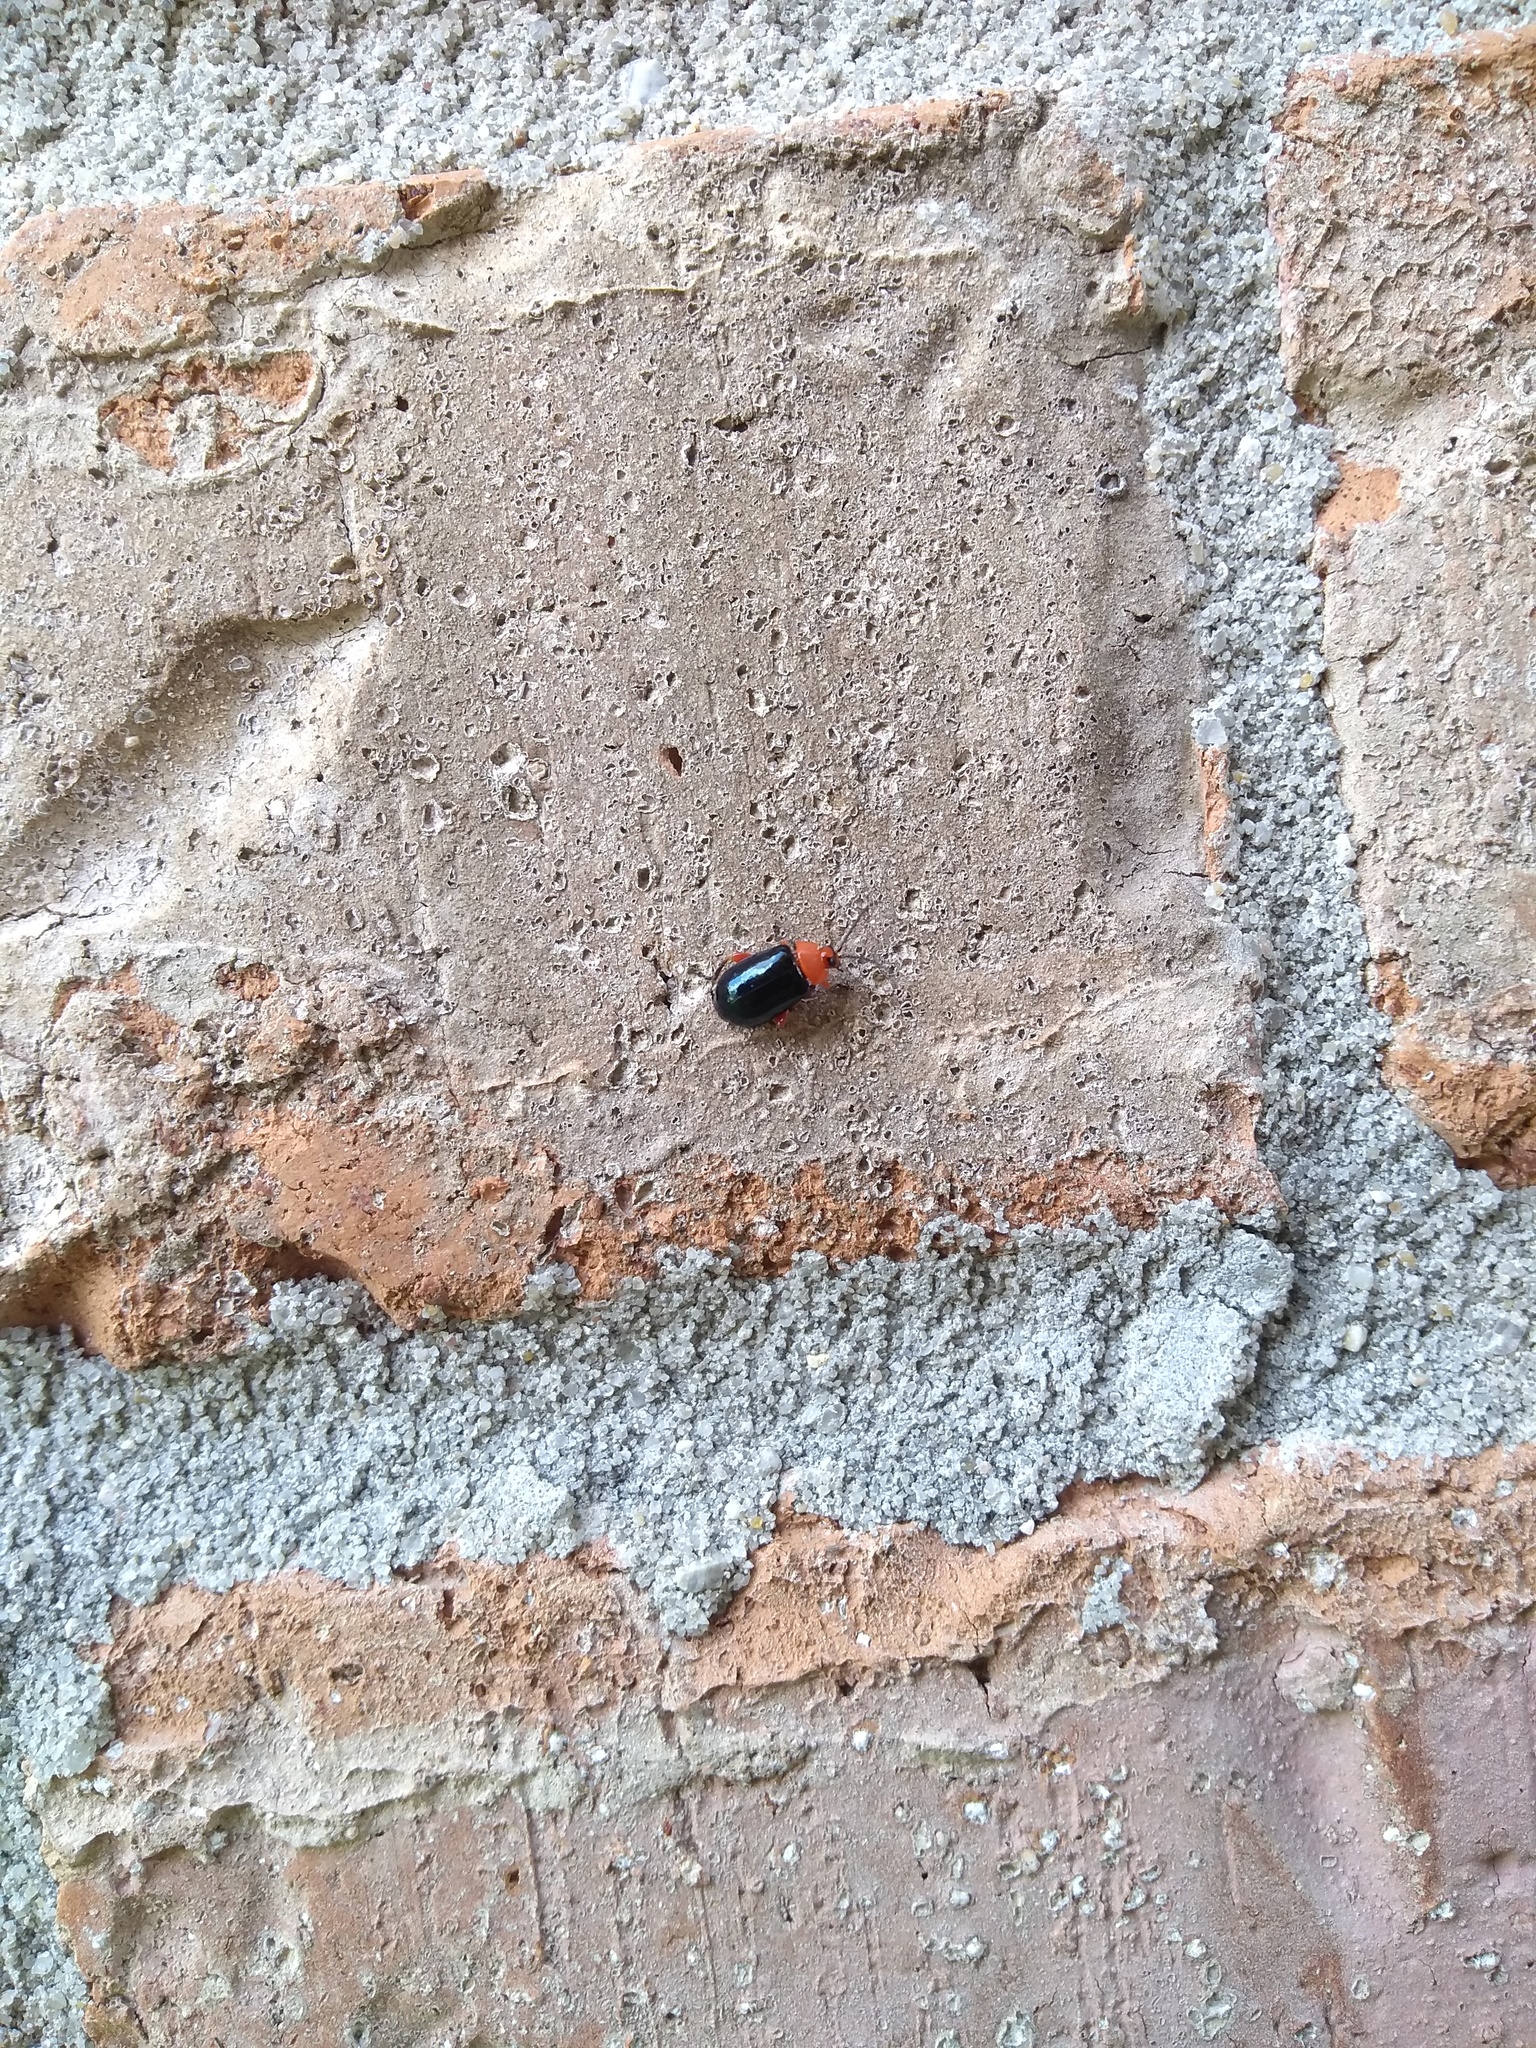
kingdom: Animalia
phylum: Arthropoda
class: Insecta
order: Coleoptera
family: Chrysomelidae
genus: Asphaera
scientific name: Asphaera lustrans
